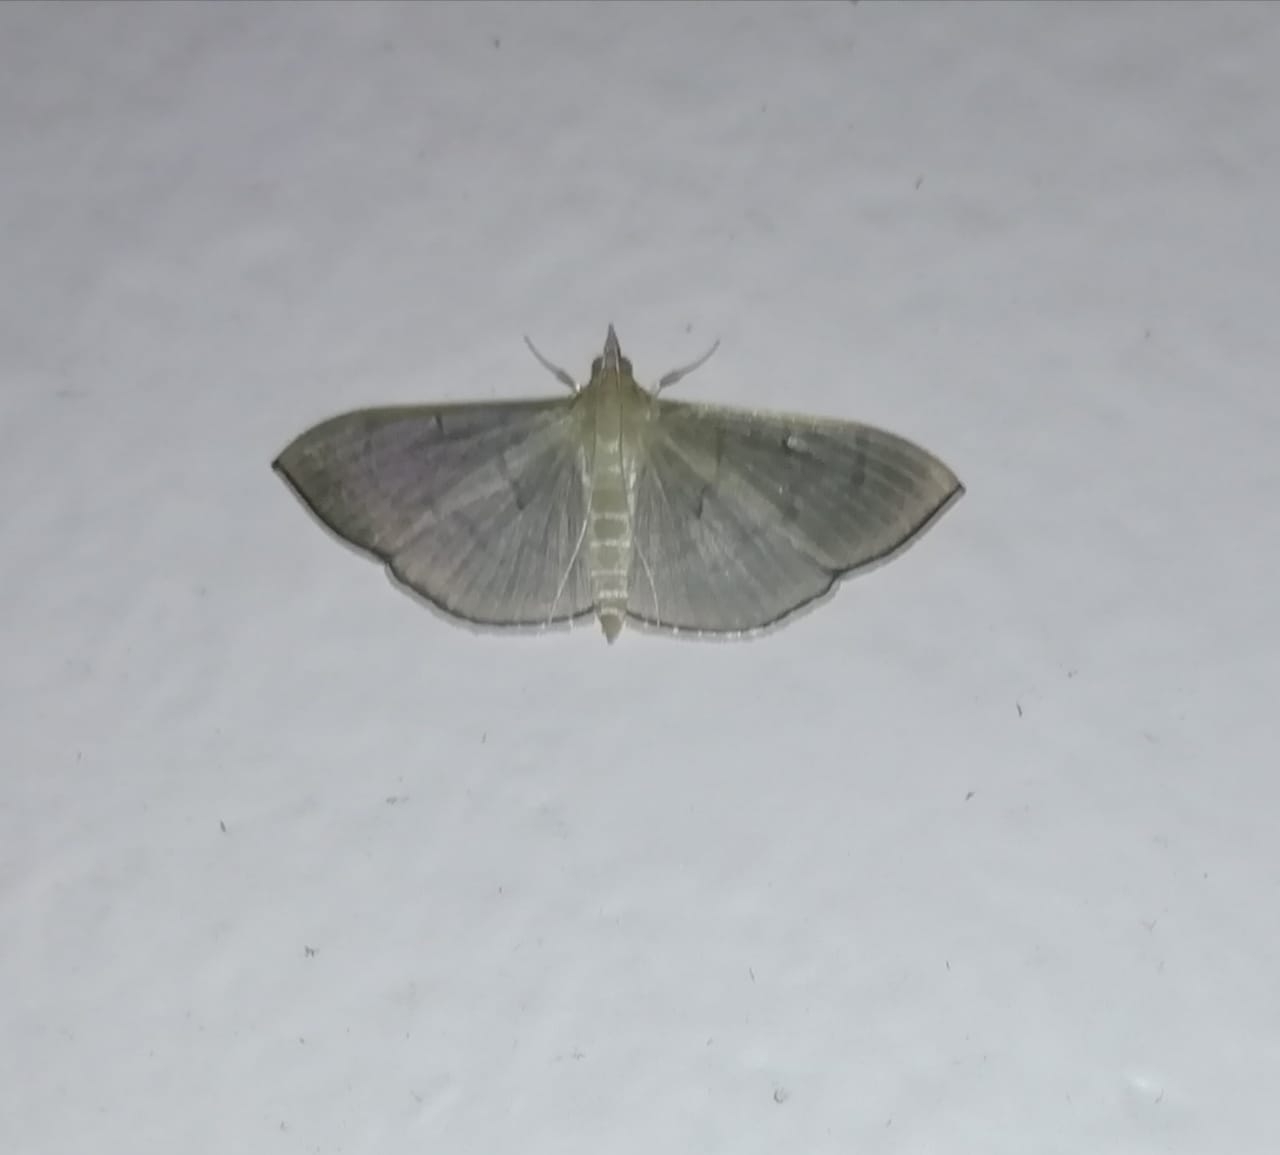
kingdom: Animalia
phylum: Arthropoda
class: Insecta
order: Lepidoptera
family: Crambidae
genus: Lamprophaia
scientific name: Lamprophaia ablactalis
